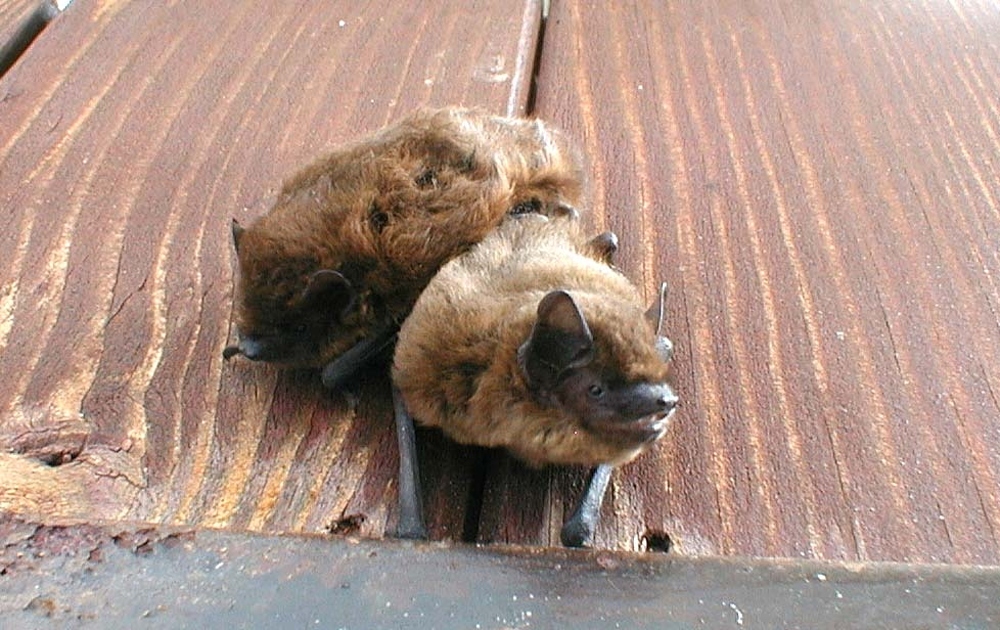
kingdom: Animalia
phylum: Chordata
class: Mammalia
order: Chiroptera
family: Vespertilionidae
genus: Pipistrellus
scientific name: Pipistrellus pipistrellus
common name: Common pipistrelle
